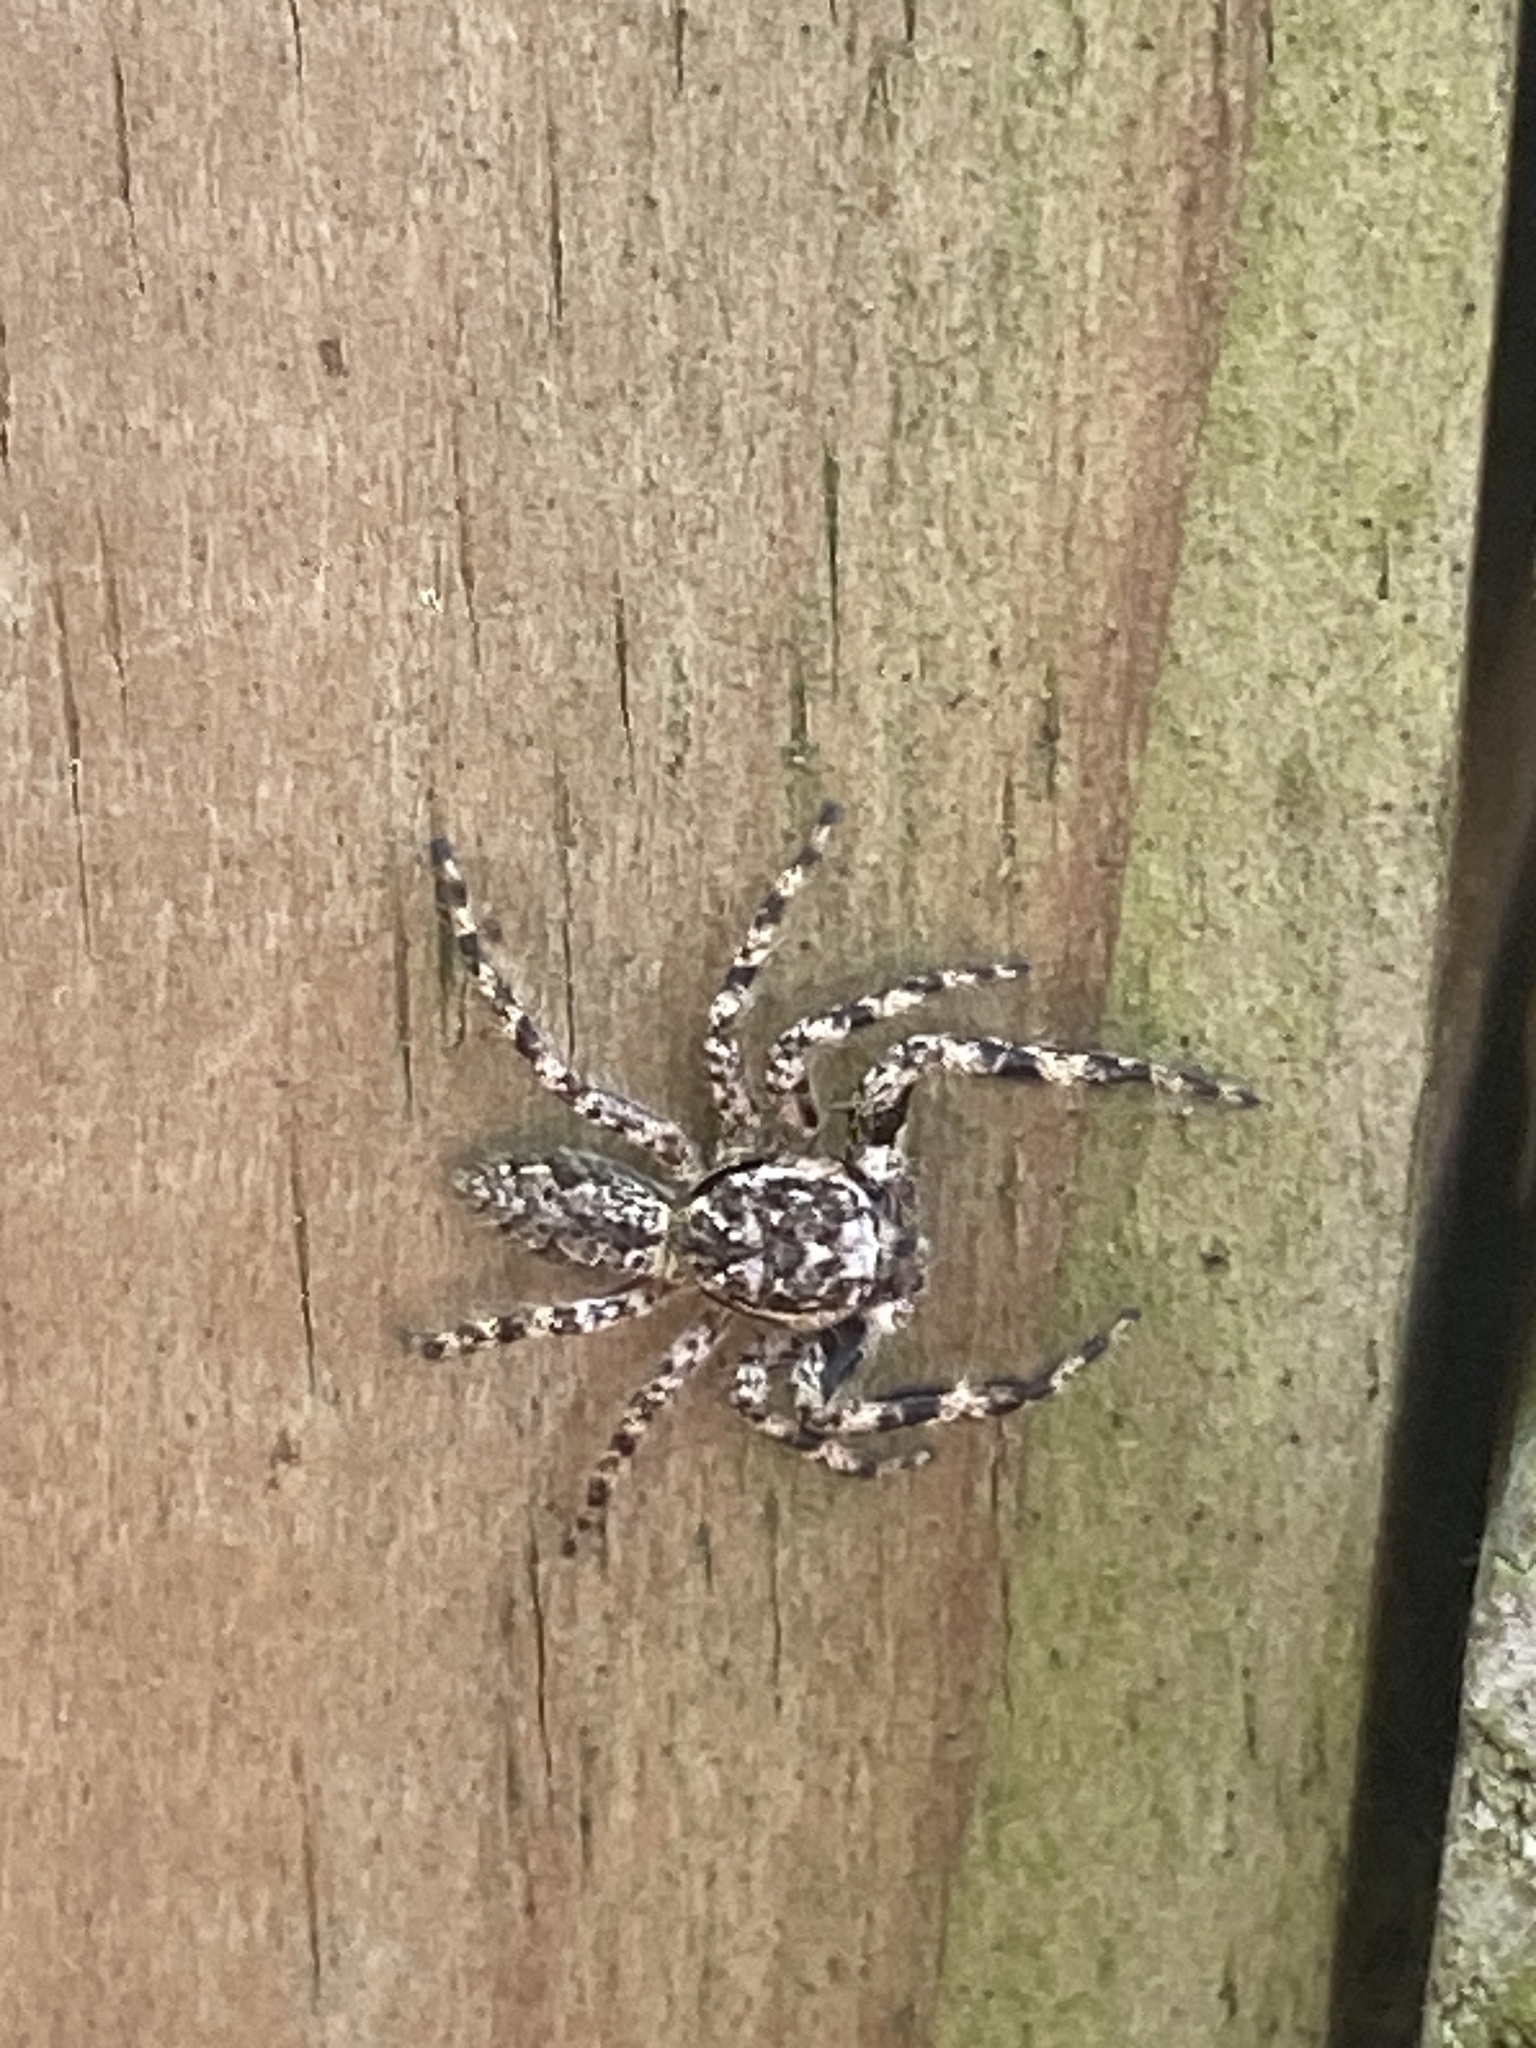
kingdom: Animalia
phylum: Arthropoda
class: Arachnida
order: Araneae
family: Salticidae
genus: Platycryptus
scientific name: Platycryptus undatus
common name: Tan jumping spider
